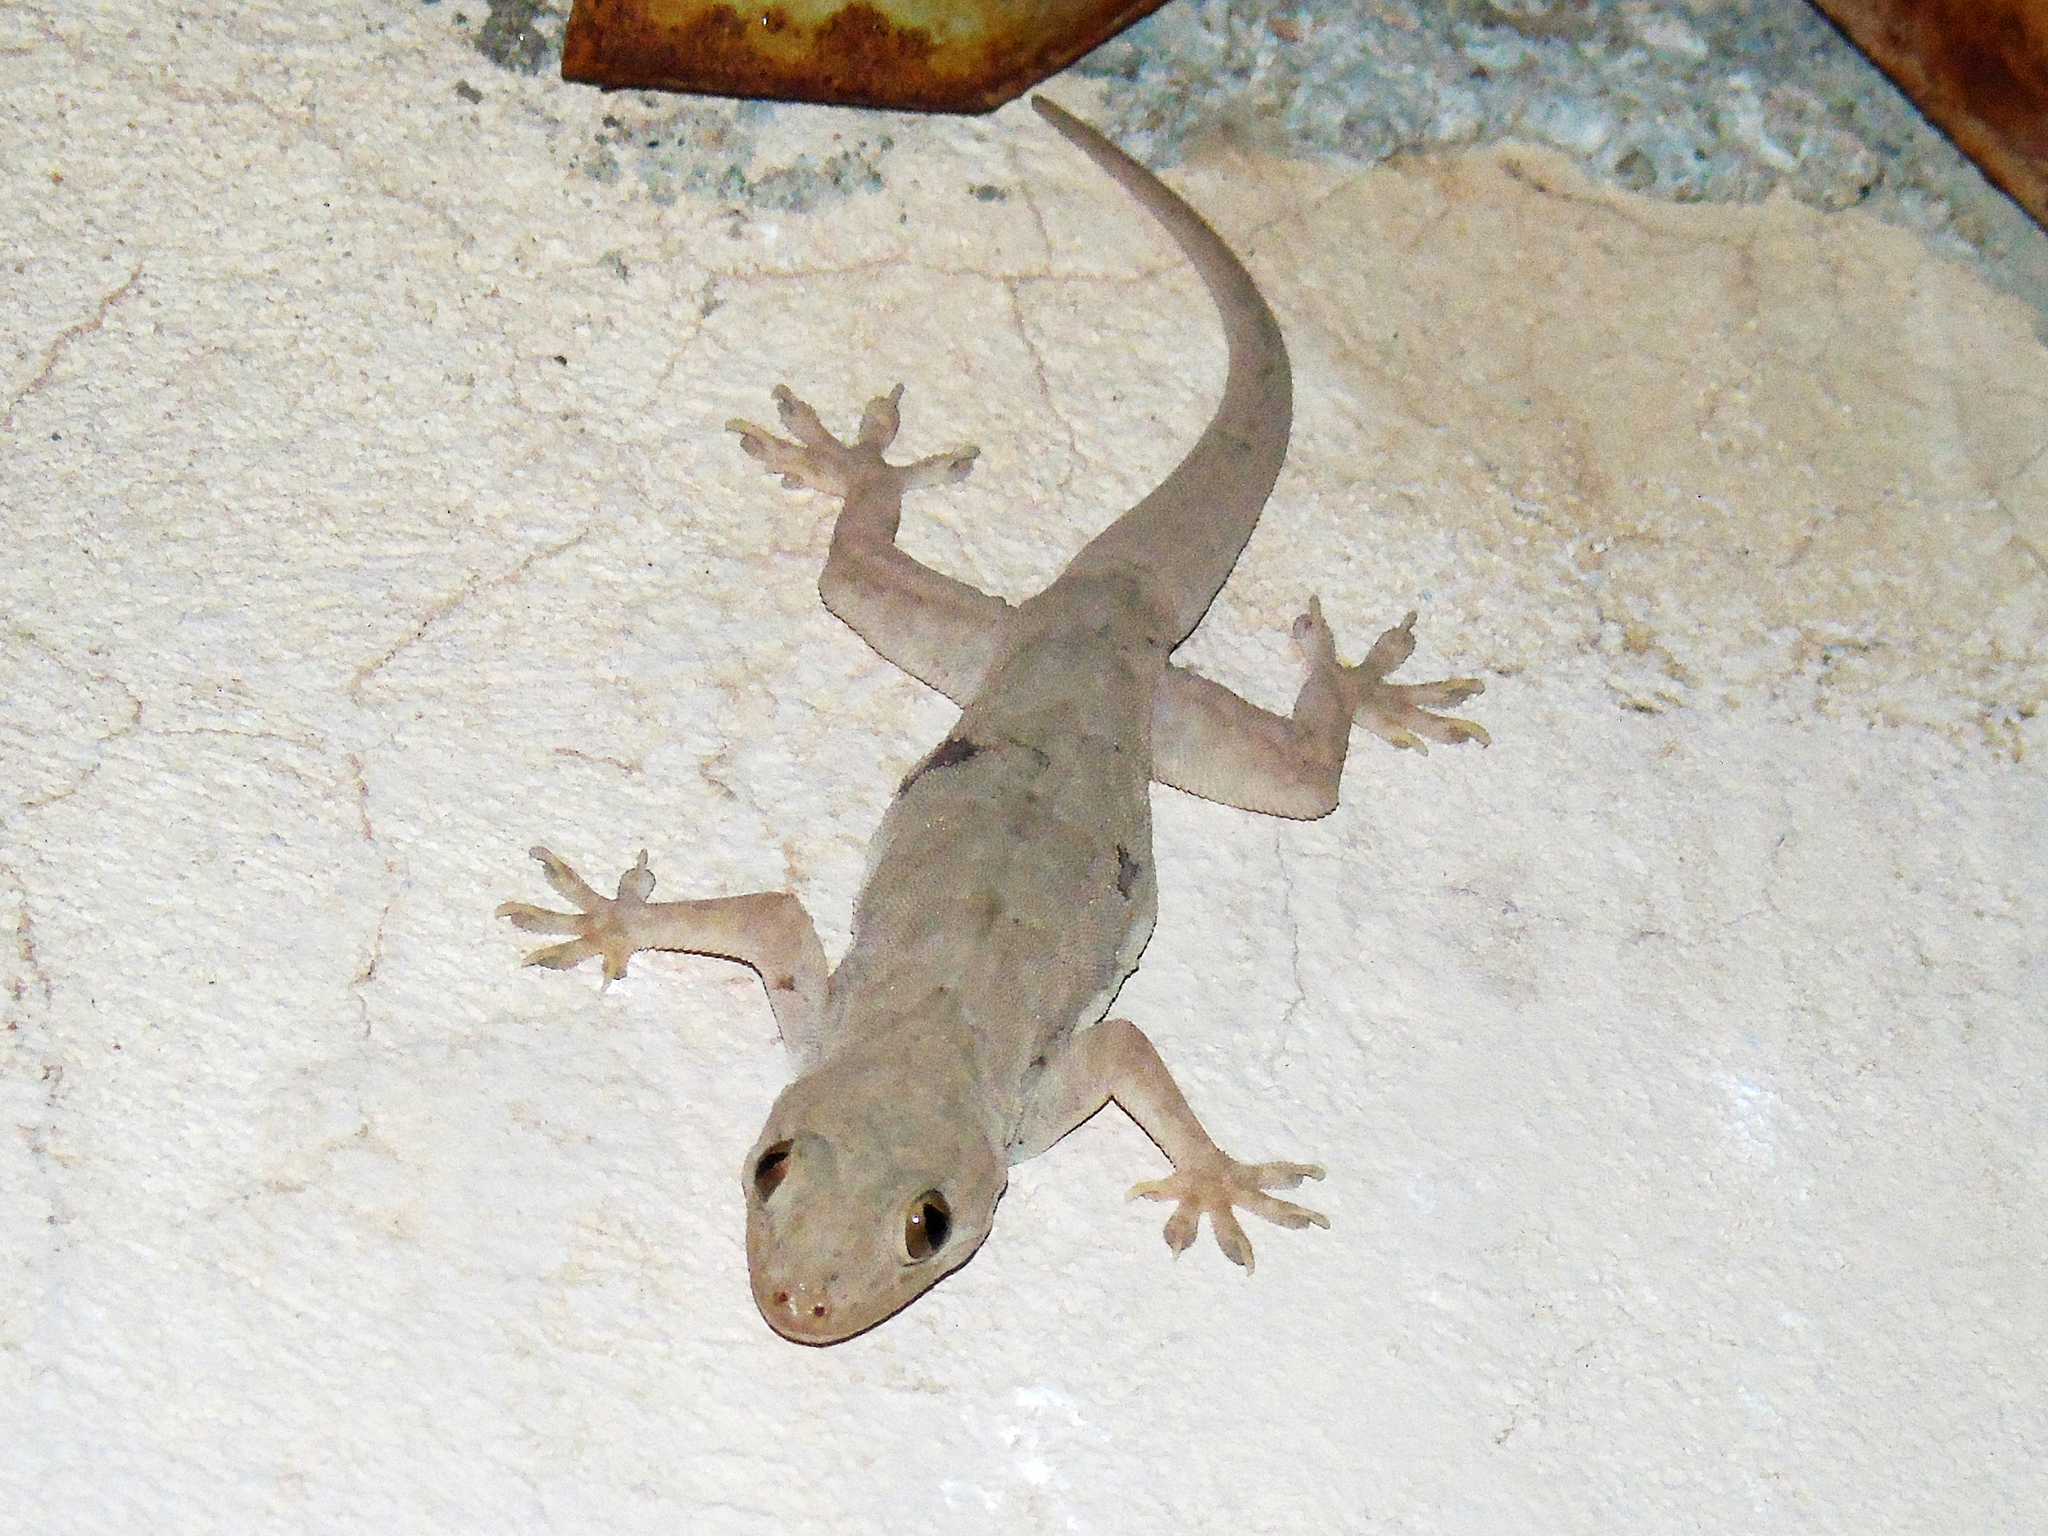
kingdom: Animalia
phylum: Chordata
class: Squamata
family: Gekkonidae
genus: Hemidactylus
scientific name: Hemidactylus flaviviridis
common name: Northern house gecko
